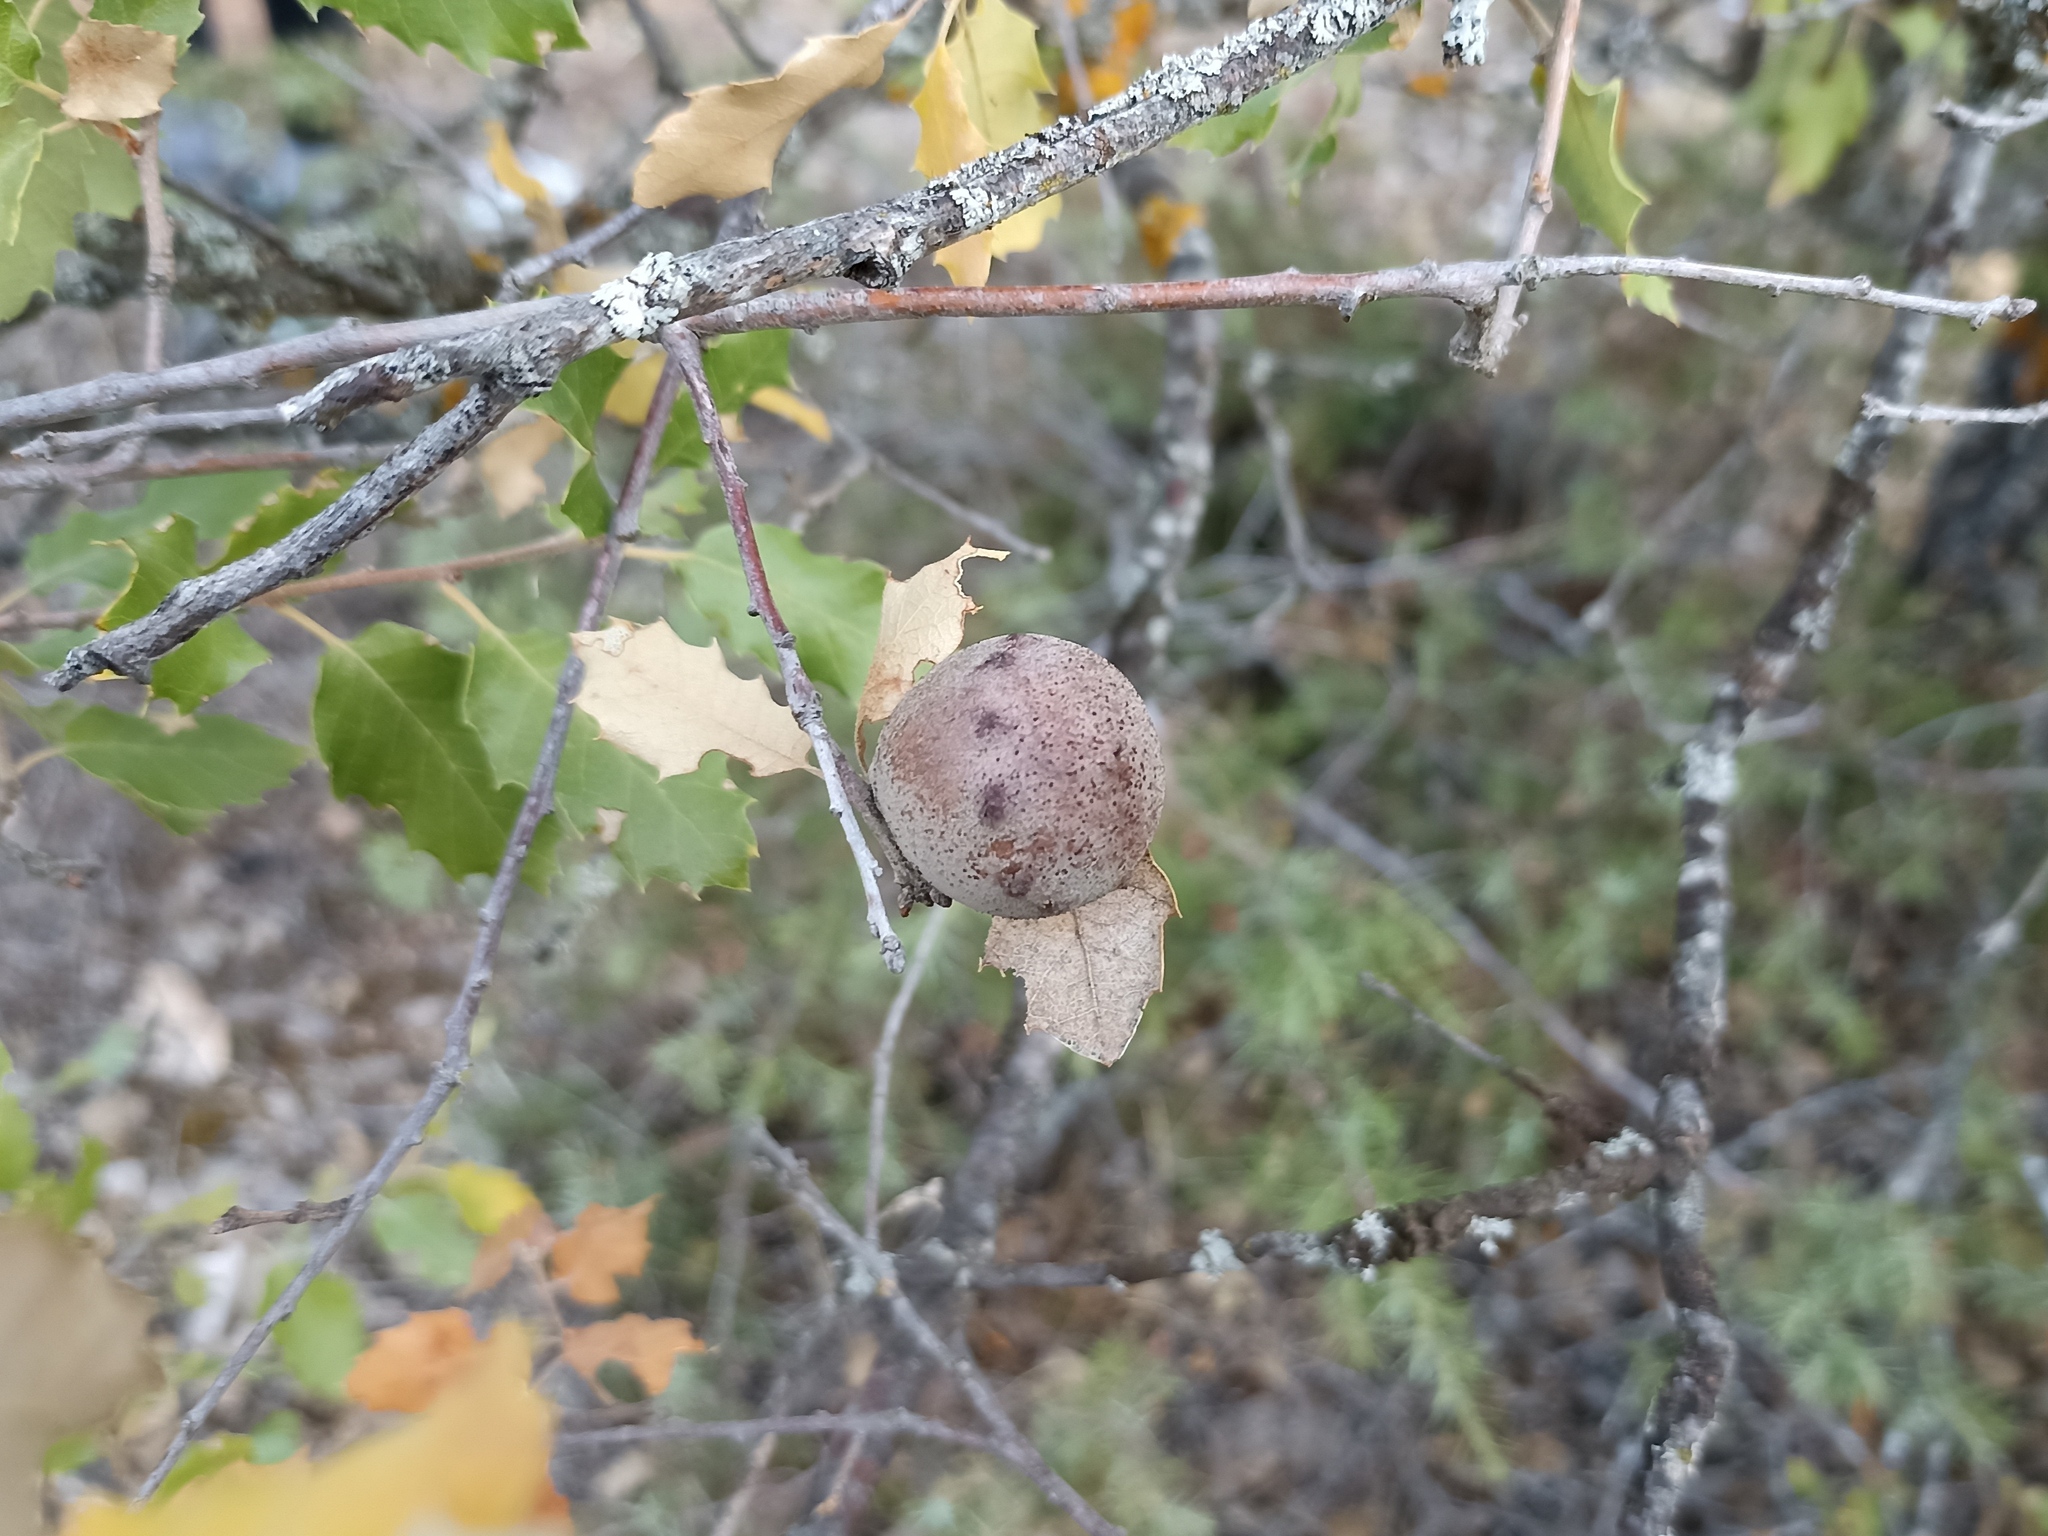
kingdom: Animalia
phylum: Arthropoda
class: Insecta
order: Hymenoptera
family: Cynipidae
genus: Andricus
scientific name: Andricus quercustozae
